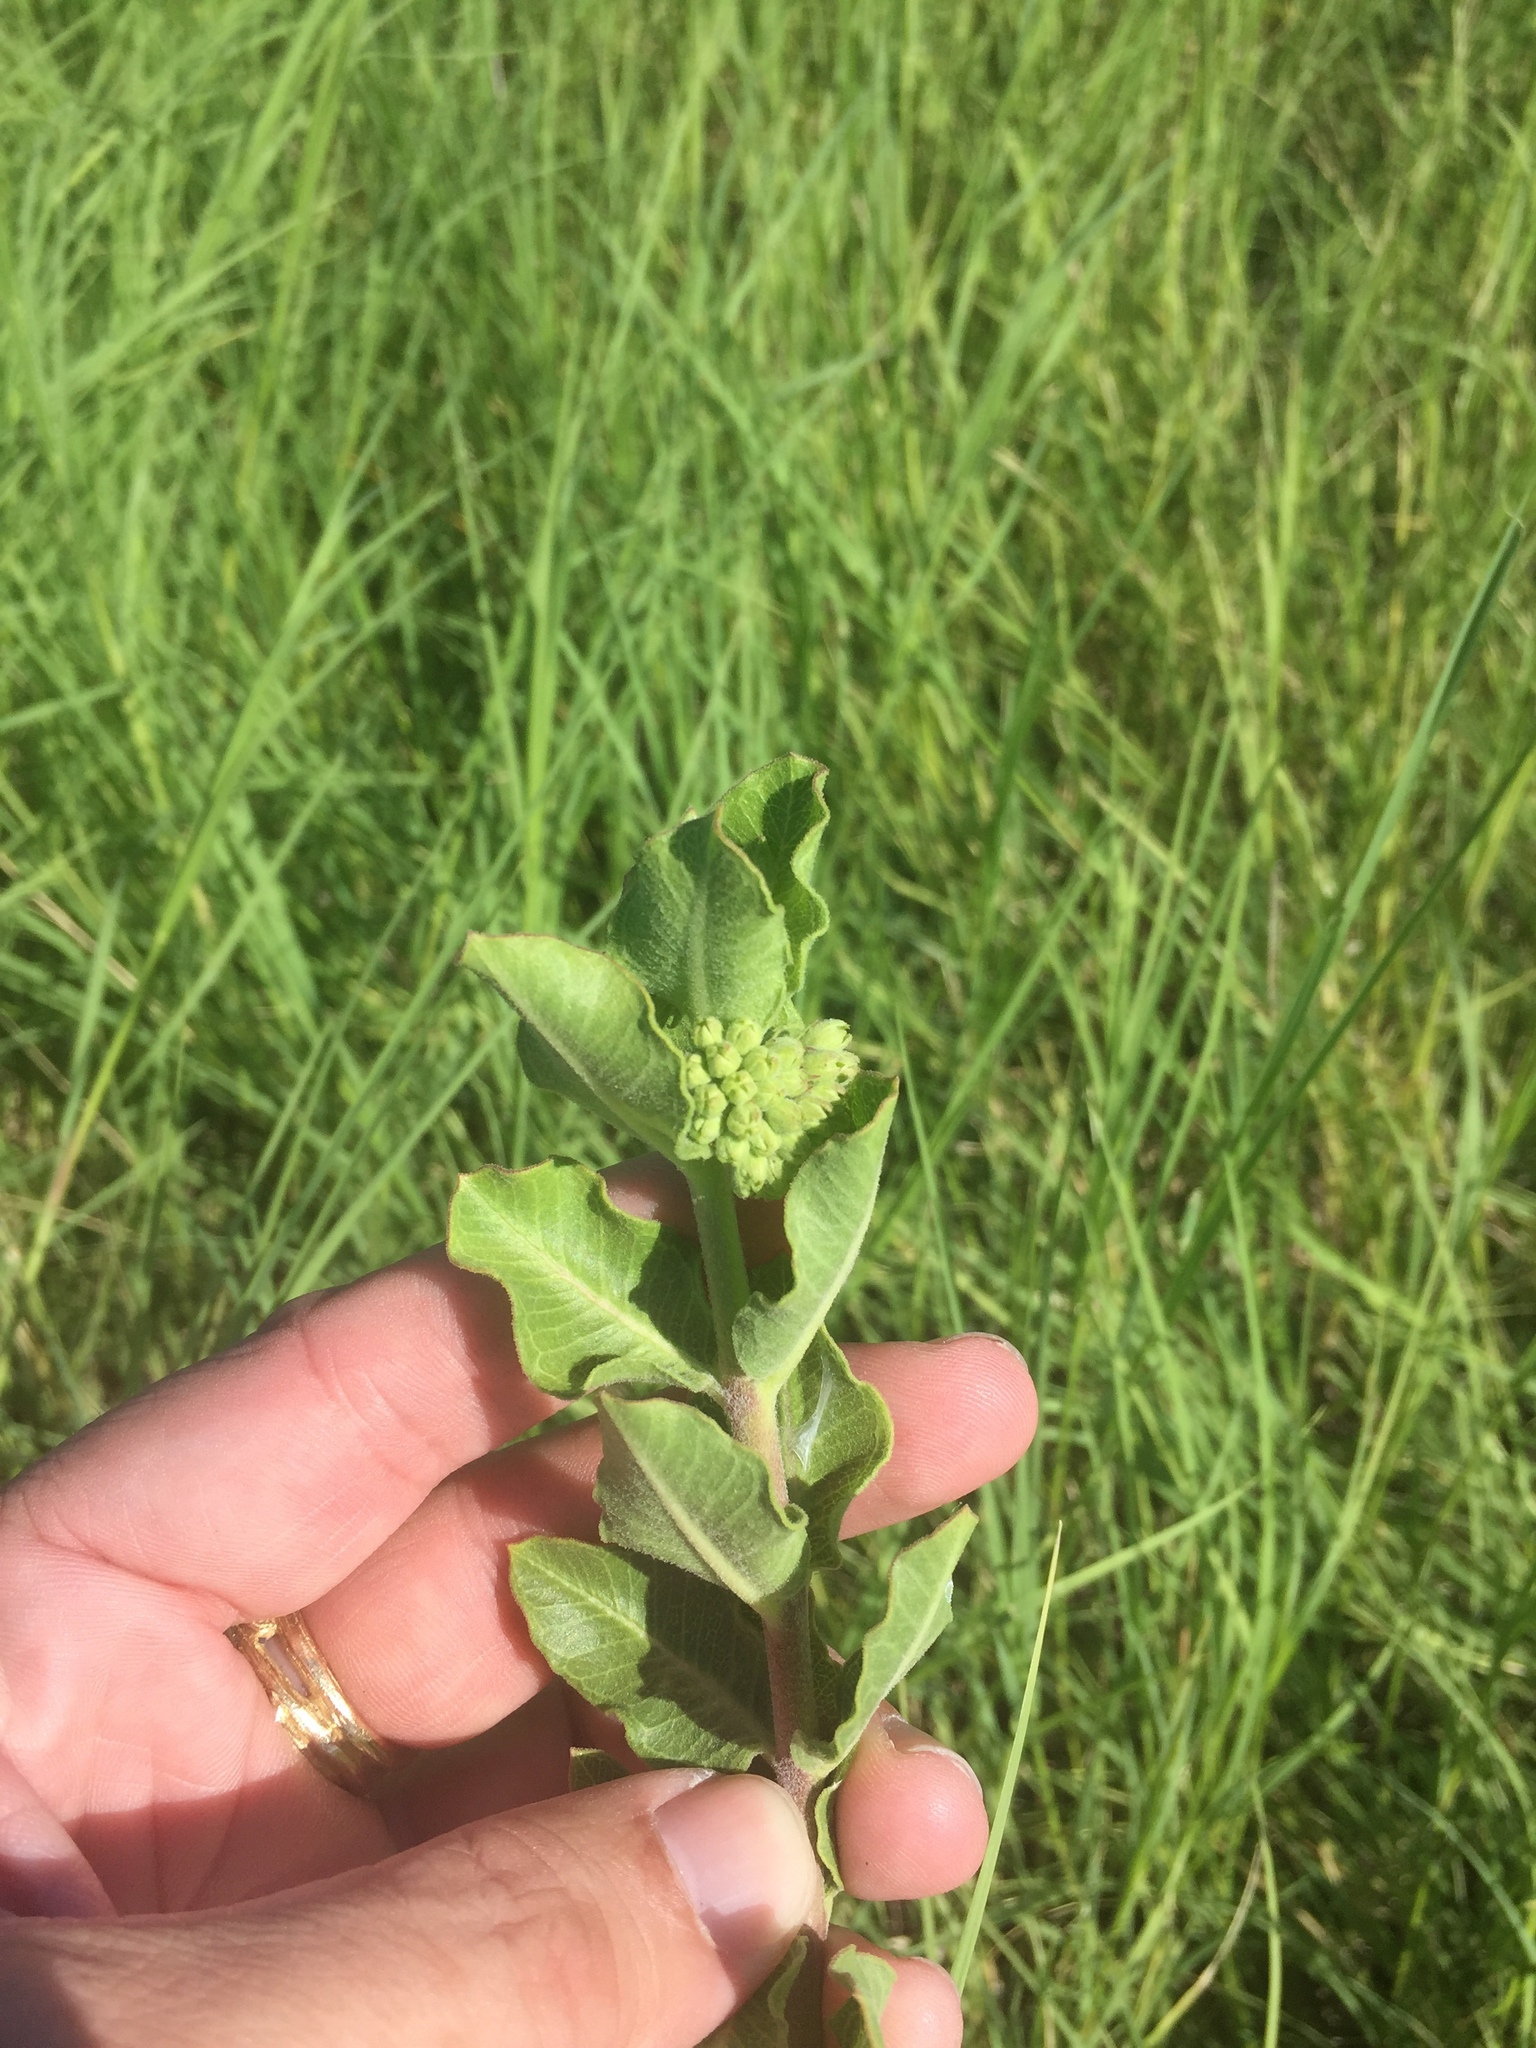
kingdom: Plantae
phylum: Tracheophyta
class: Magnoliopsida
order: Gentianales
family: Apocynaceae
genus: Asclepias
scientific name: Asclepias viridiflora
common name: Green comet milkweed
